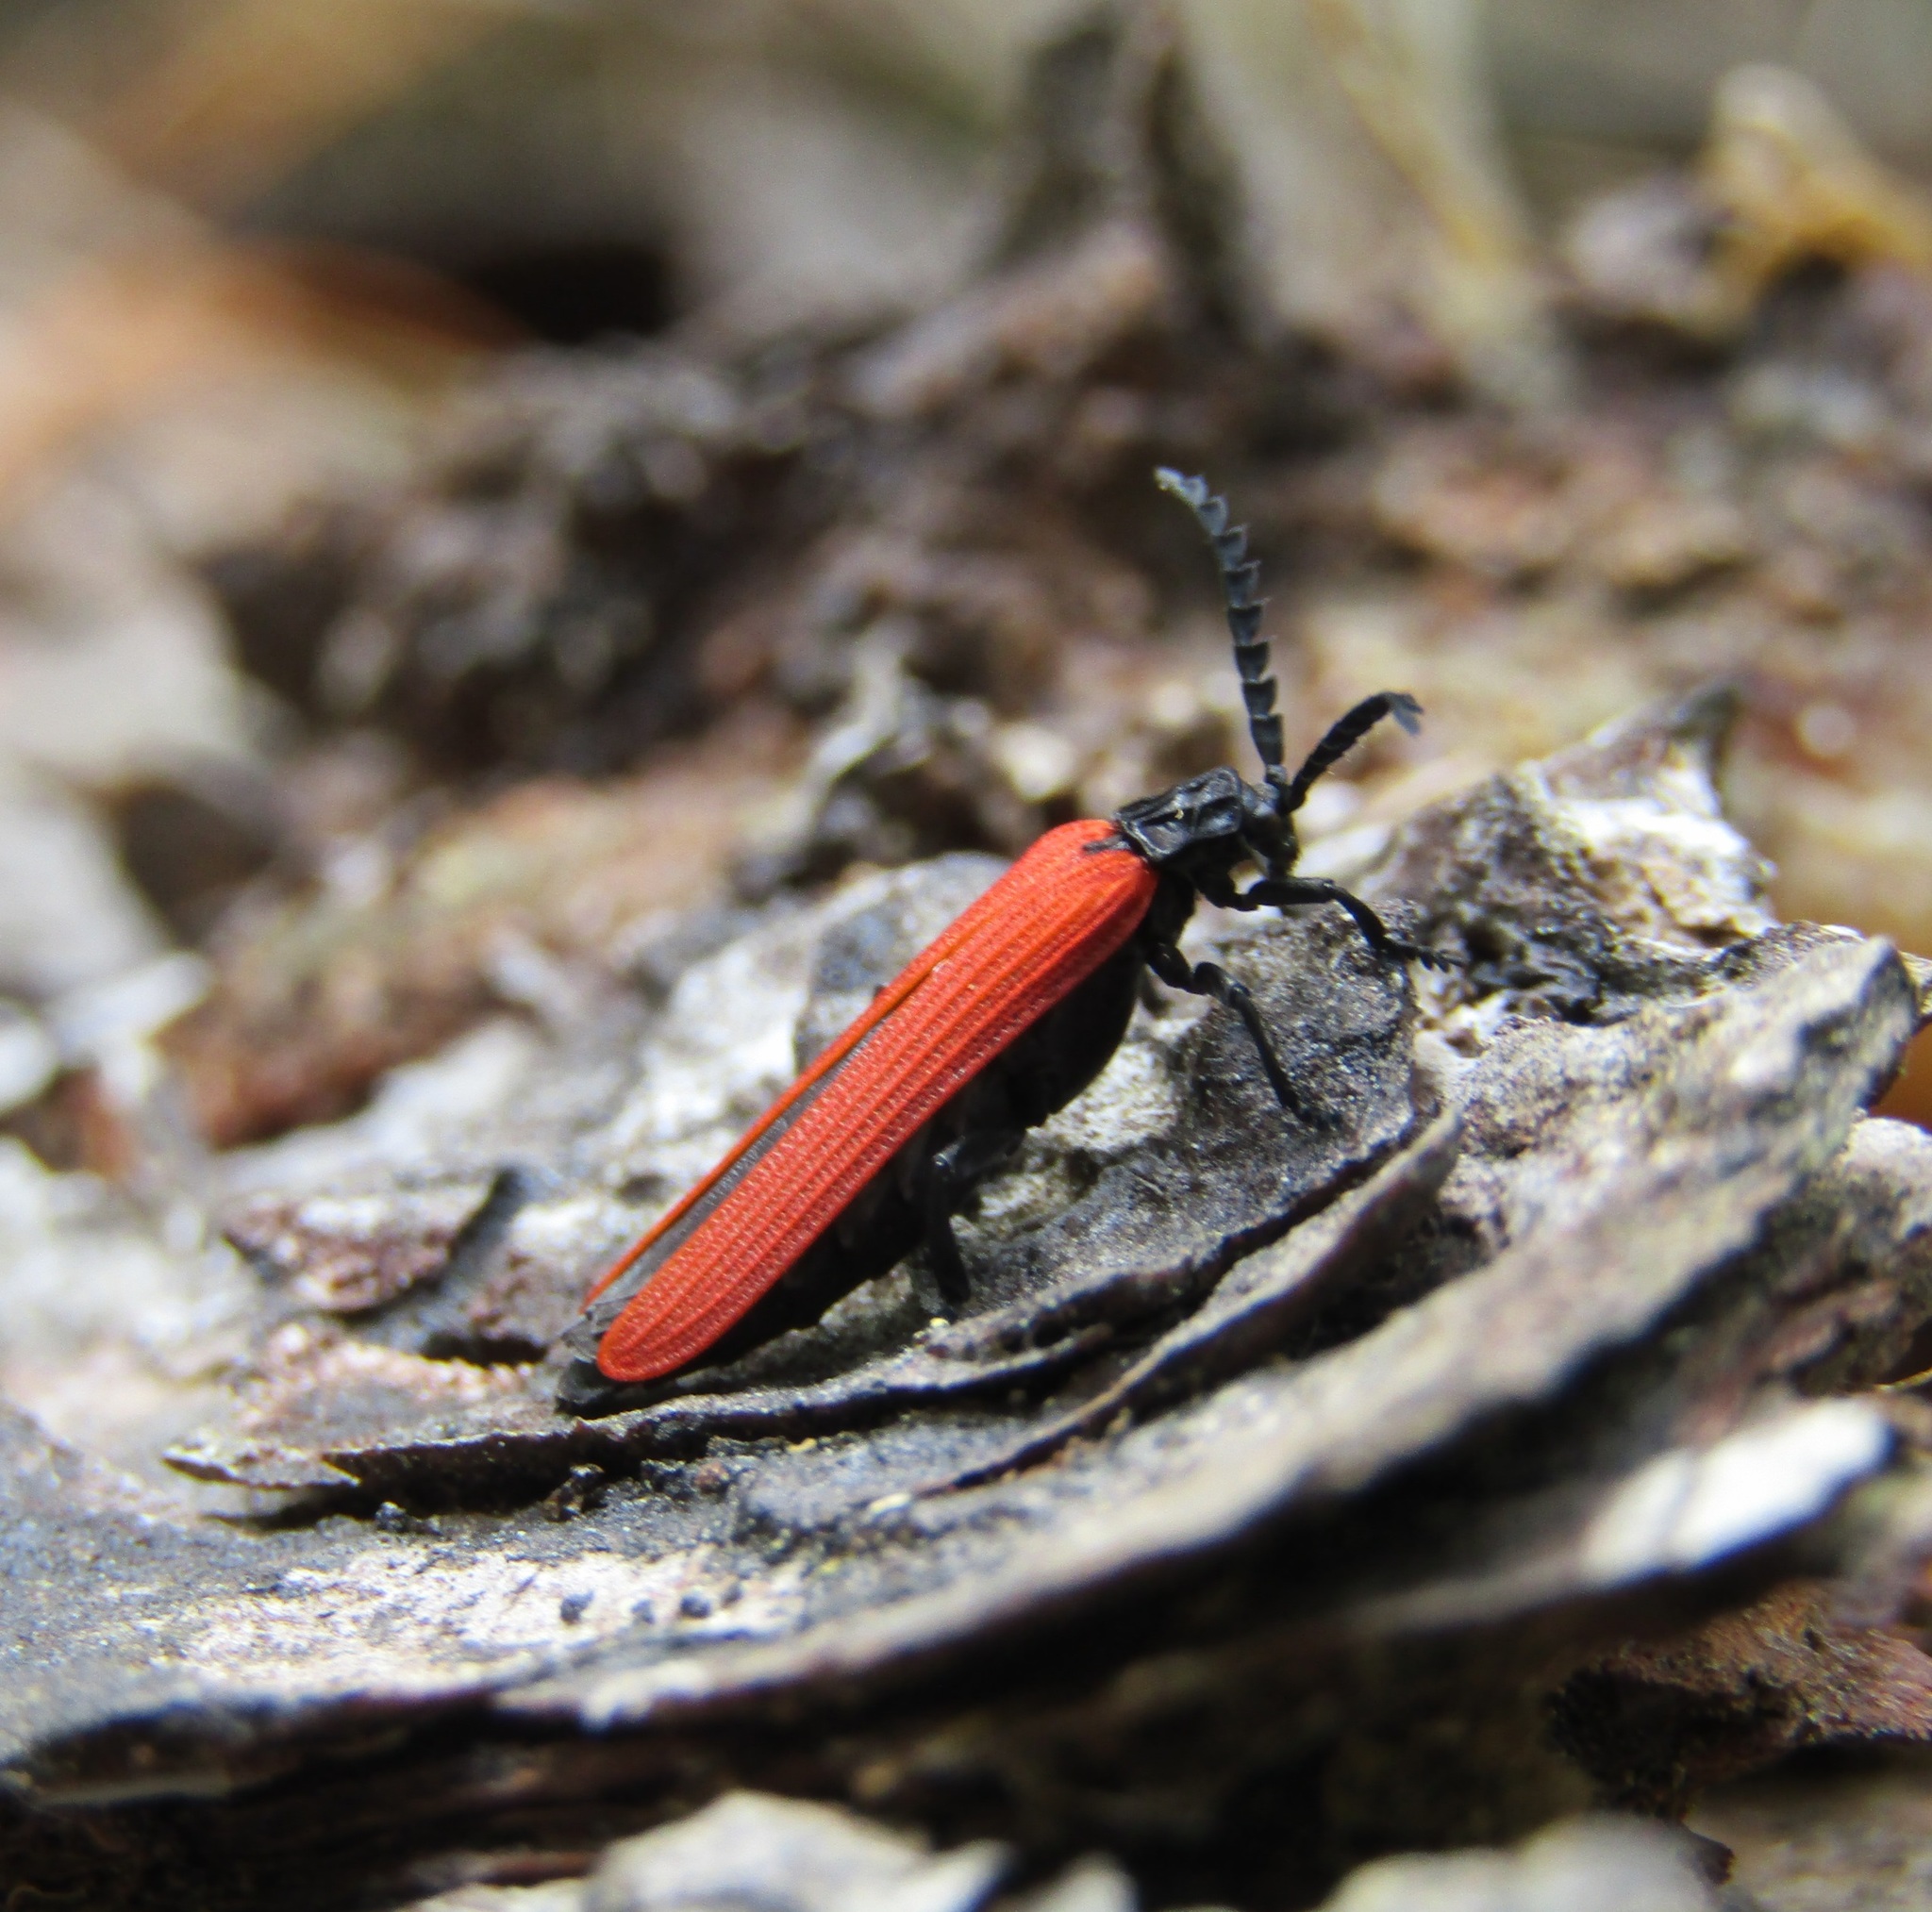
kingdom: Animalia
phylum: Arthropoda
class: Insecta
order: Coleoptera
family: Lycidae
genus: Porrostoma
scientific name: Porrostoma rufipenne
